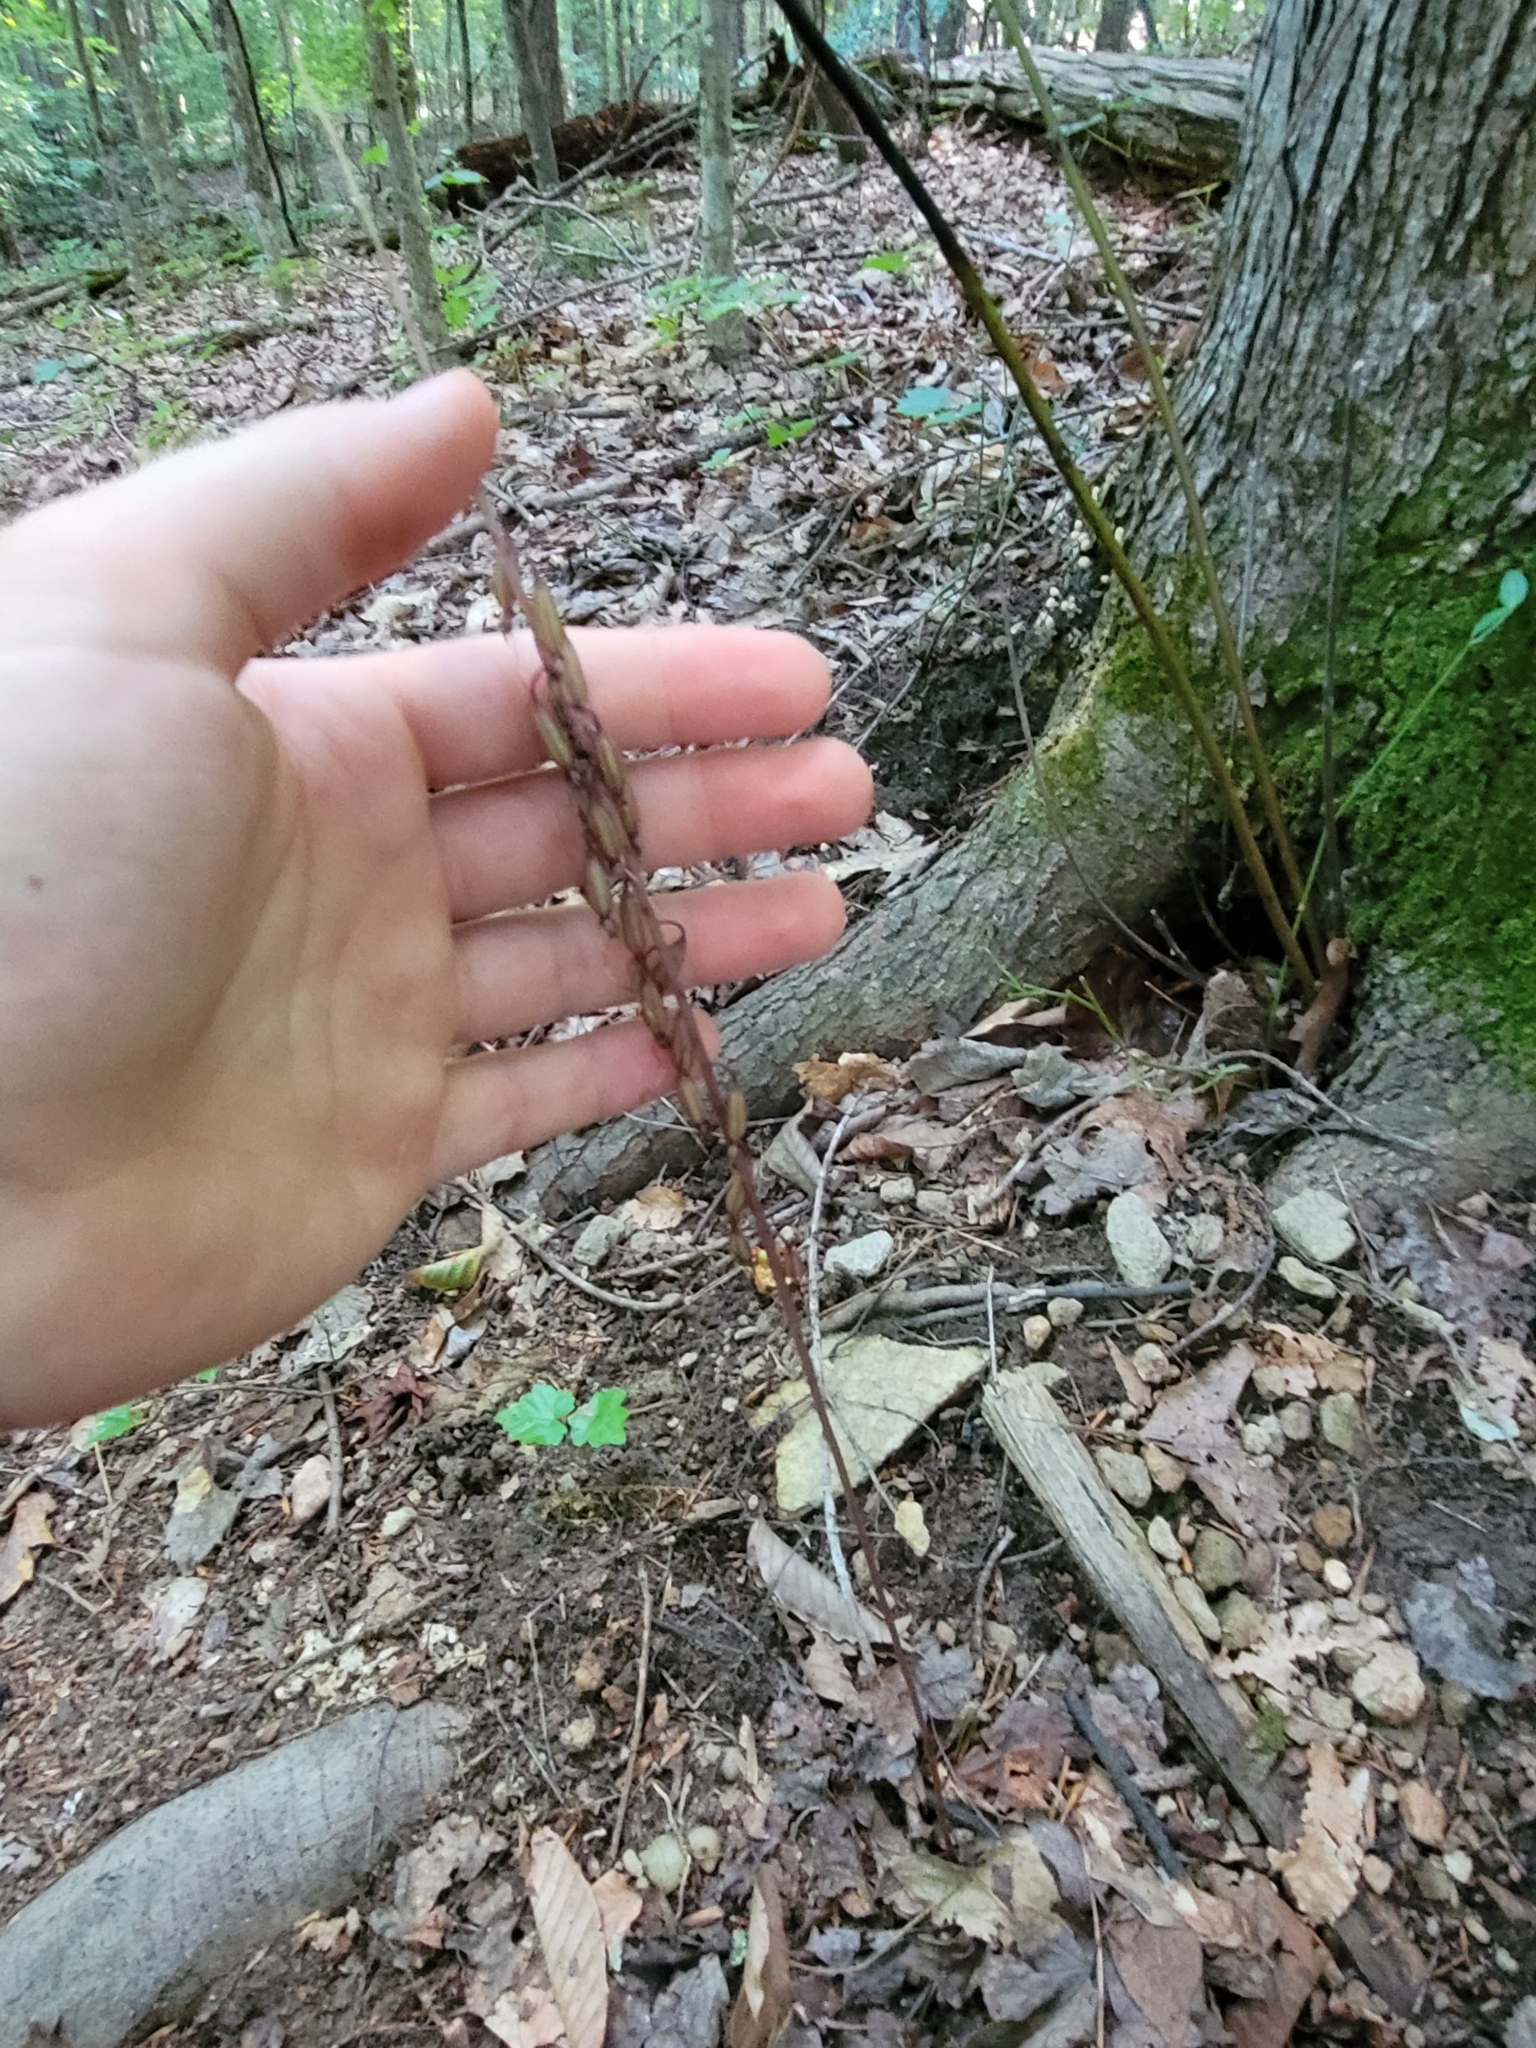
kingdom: Plantae
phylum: Tracheophyta
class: Liliopsida
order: Asparagales
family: Orchidaceae
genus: Tipularia
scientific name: Tipularia discolor
